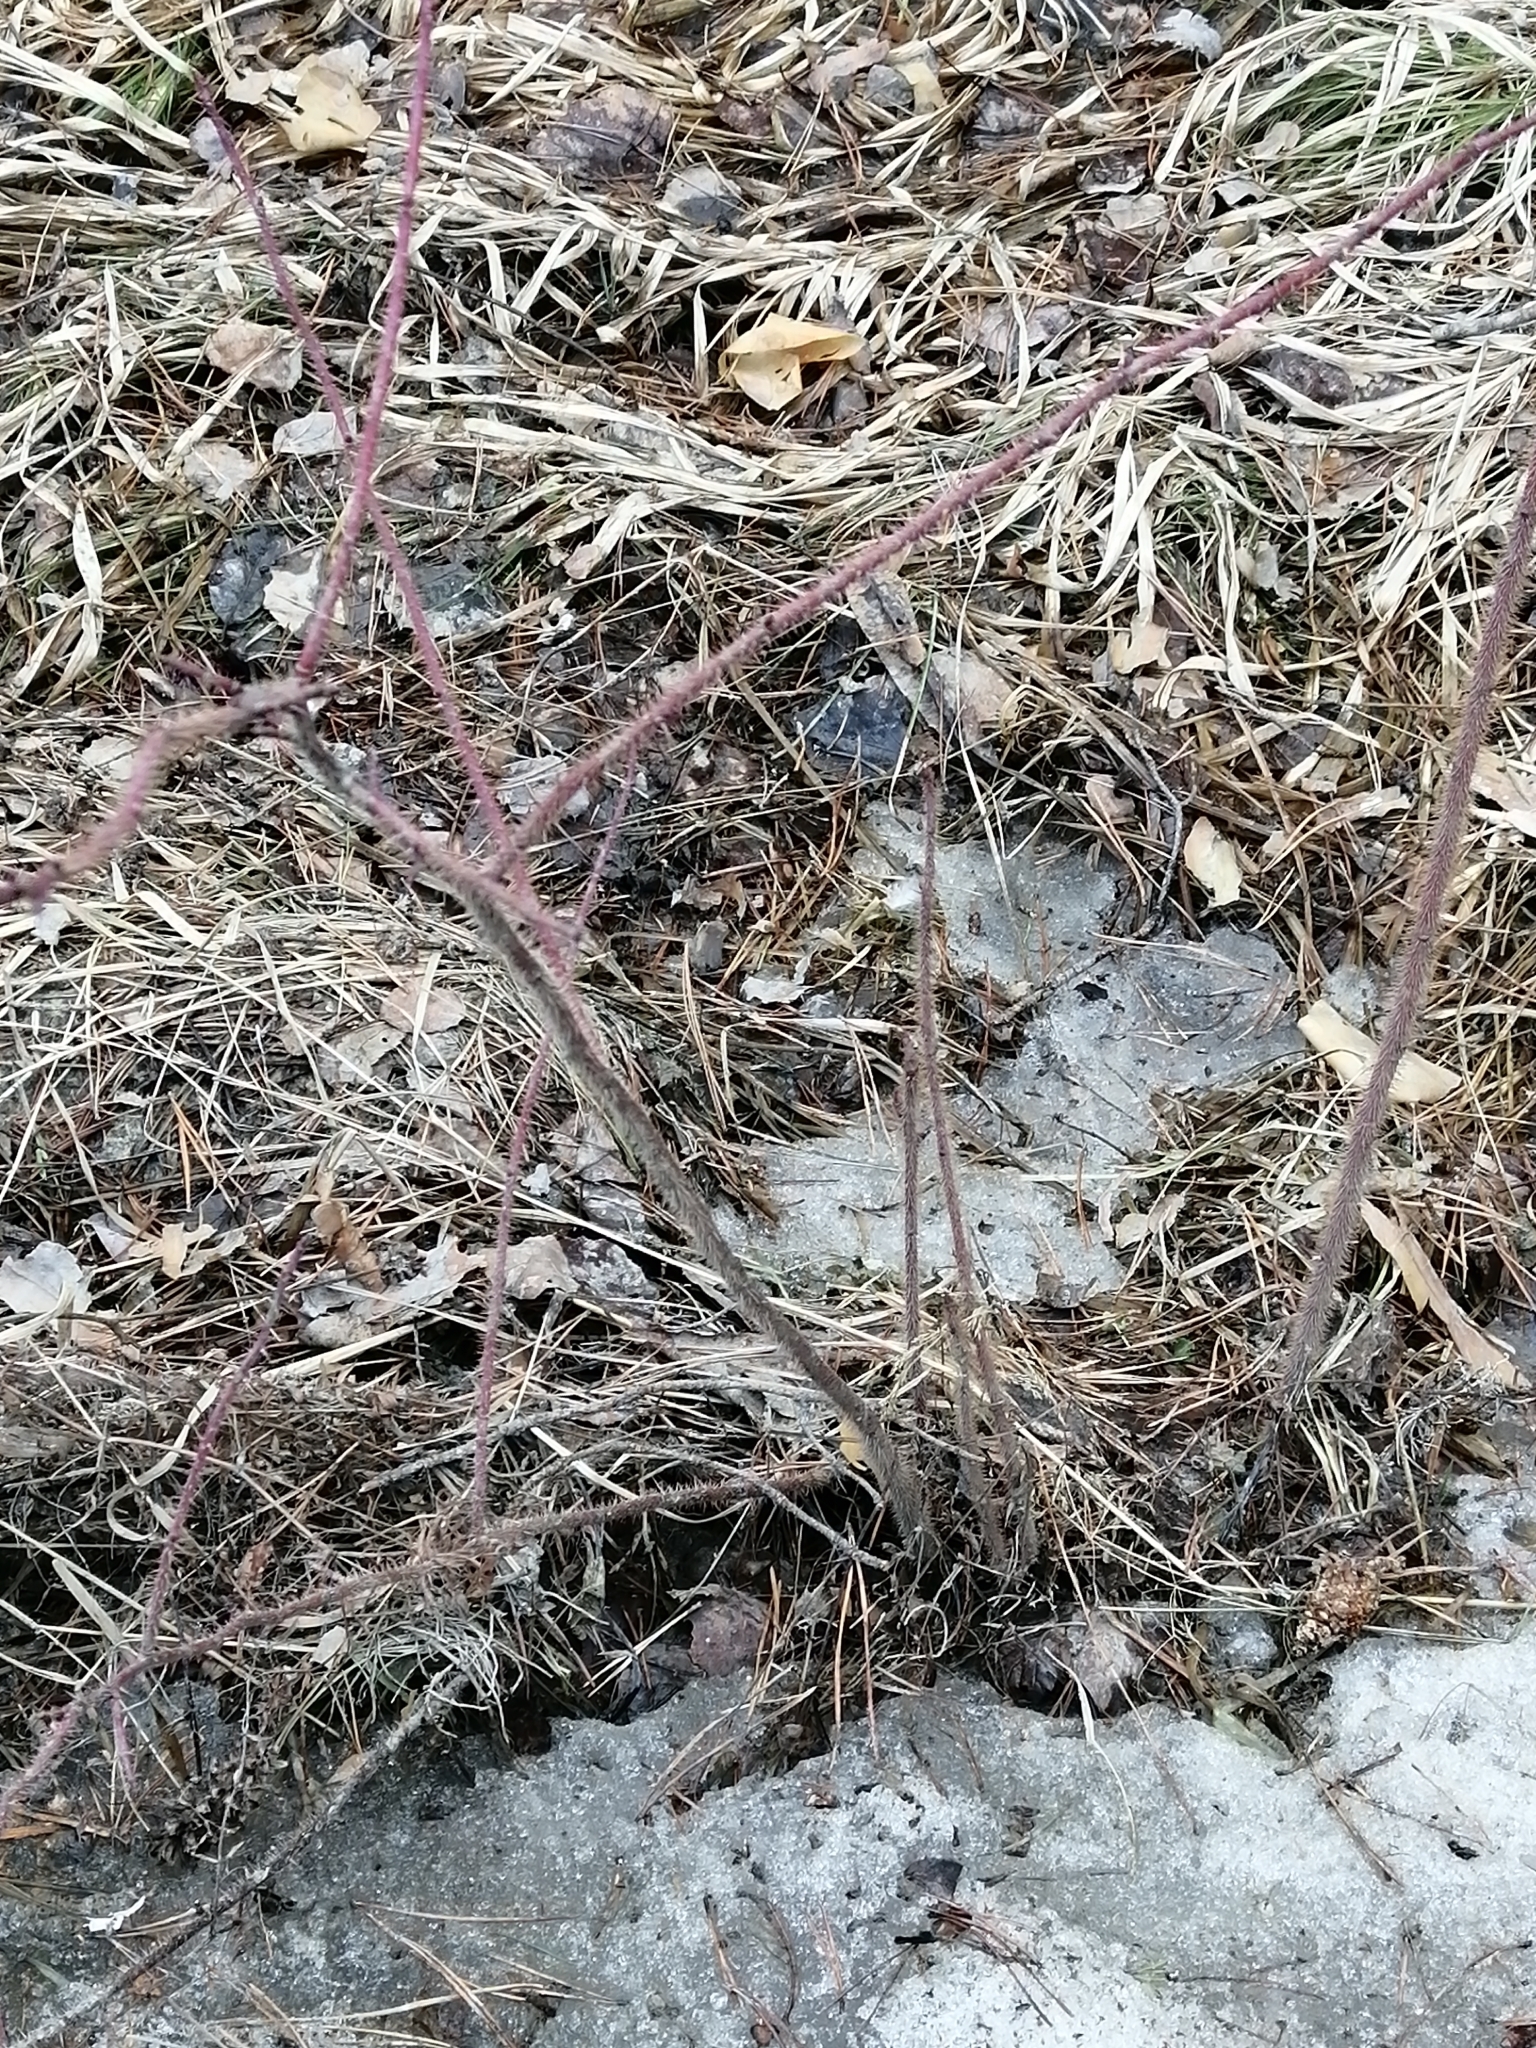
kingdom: Plantae
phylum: Tracheophyta
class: Magnoliopsida
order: Rosales
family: Rosaceae
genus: Rosa
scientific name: Rosa acicularis
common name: Prickly rose
